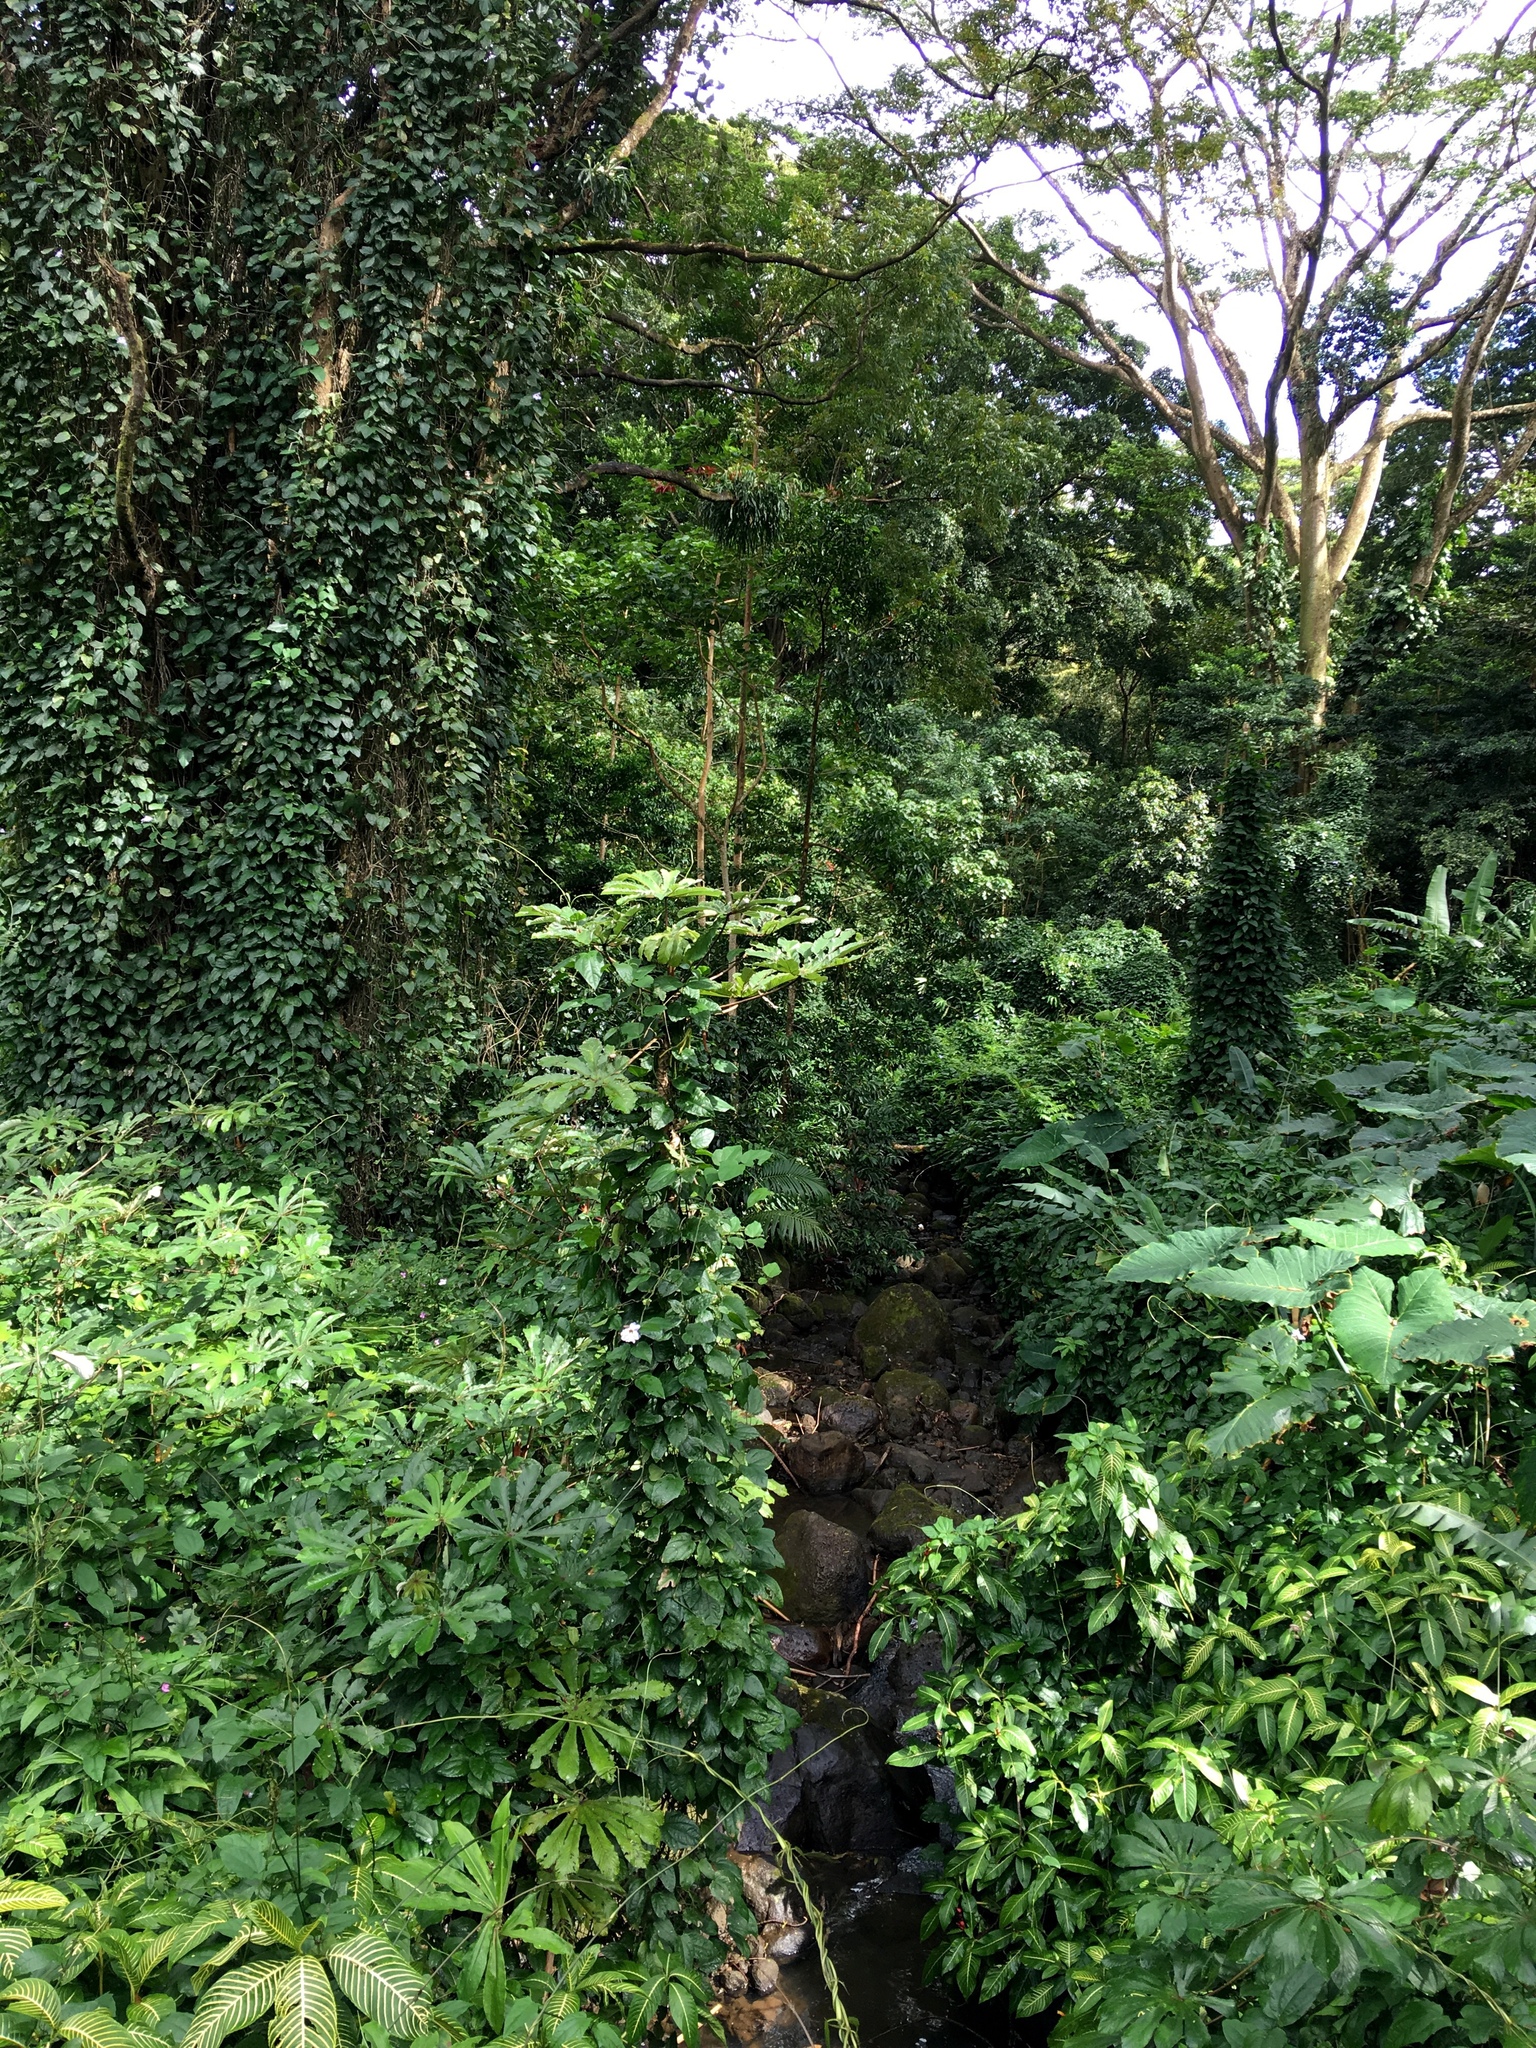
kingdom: Plantae
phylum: Tracheophyta
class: Magnoliopsida
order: Rosales
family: Urticaceae
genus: Cecropia
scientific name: Cecropia obtusifolia
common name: Trumpet tree
